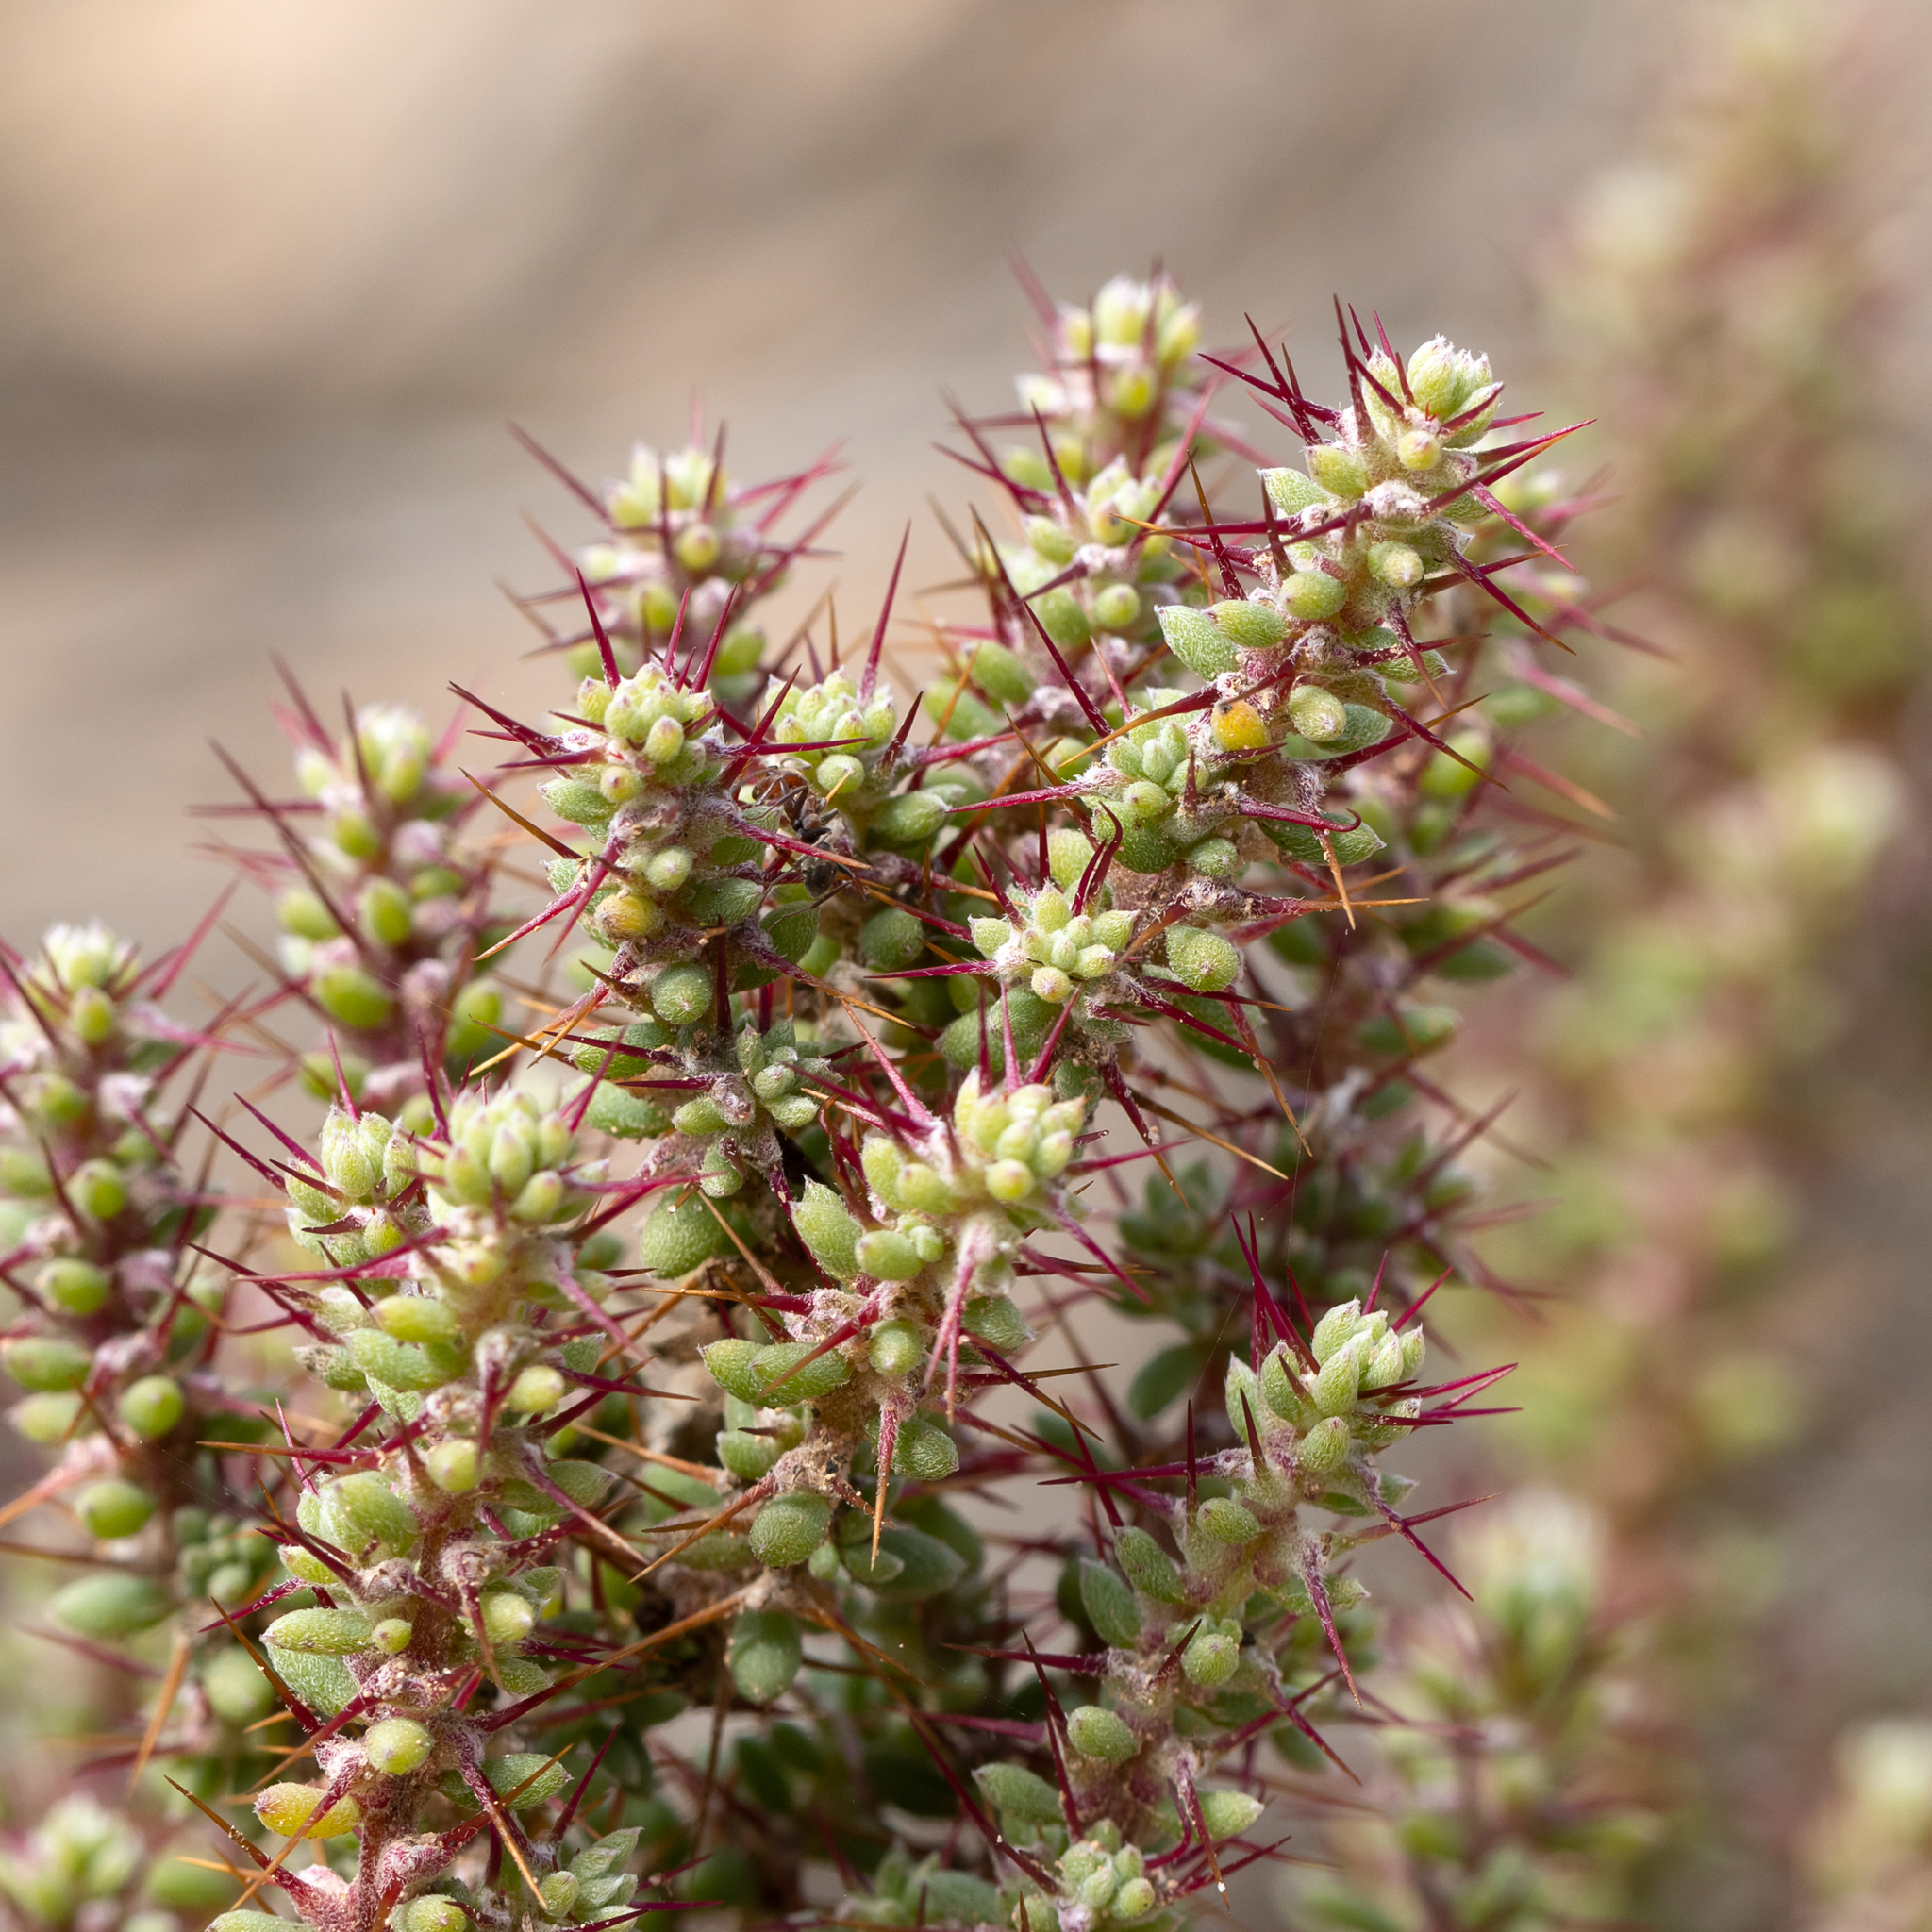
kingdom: Plantae
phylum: Tracheophyta
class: Magnoliopsida
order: Caryophyllales
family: Amaranthaceae
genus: Sclerolaena
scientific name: Sclerolaena brevifolia
